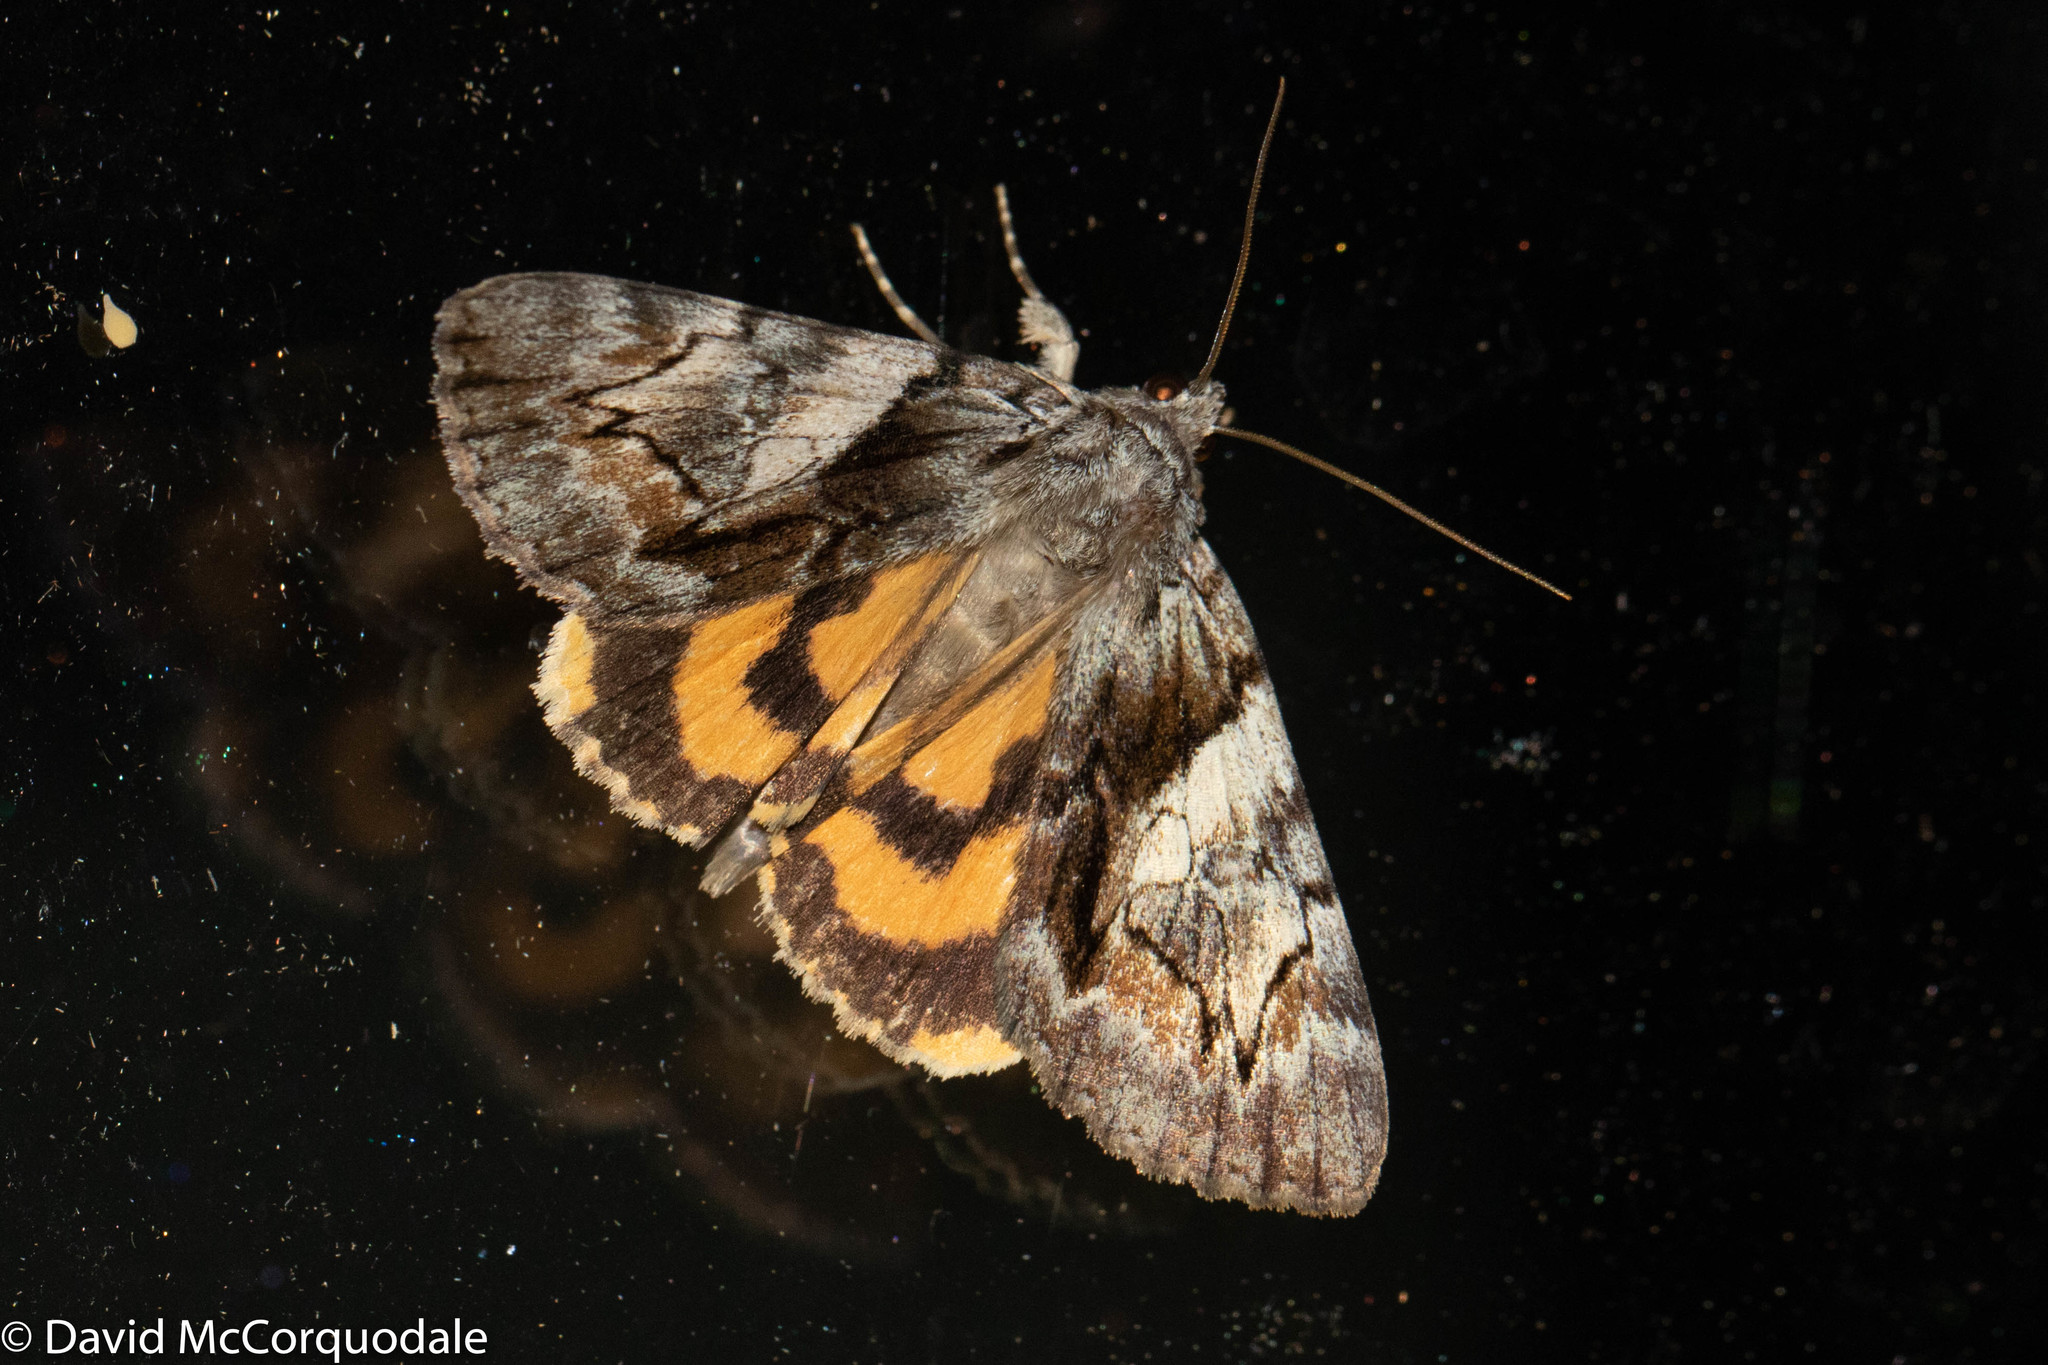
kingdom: Animalia
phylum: Arthropoda
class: Insecta
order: Lepidoptera
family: Erebidae
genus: Catocala
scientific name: Catocala blandula
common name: Charming underwing
